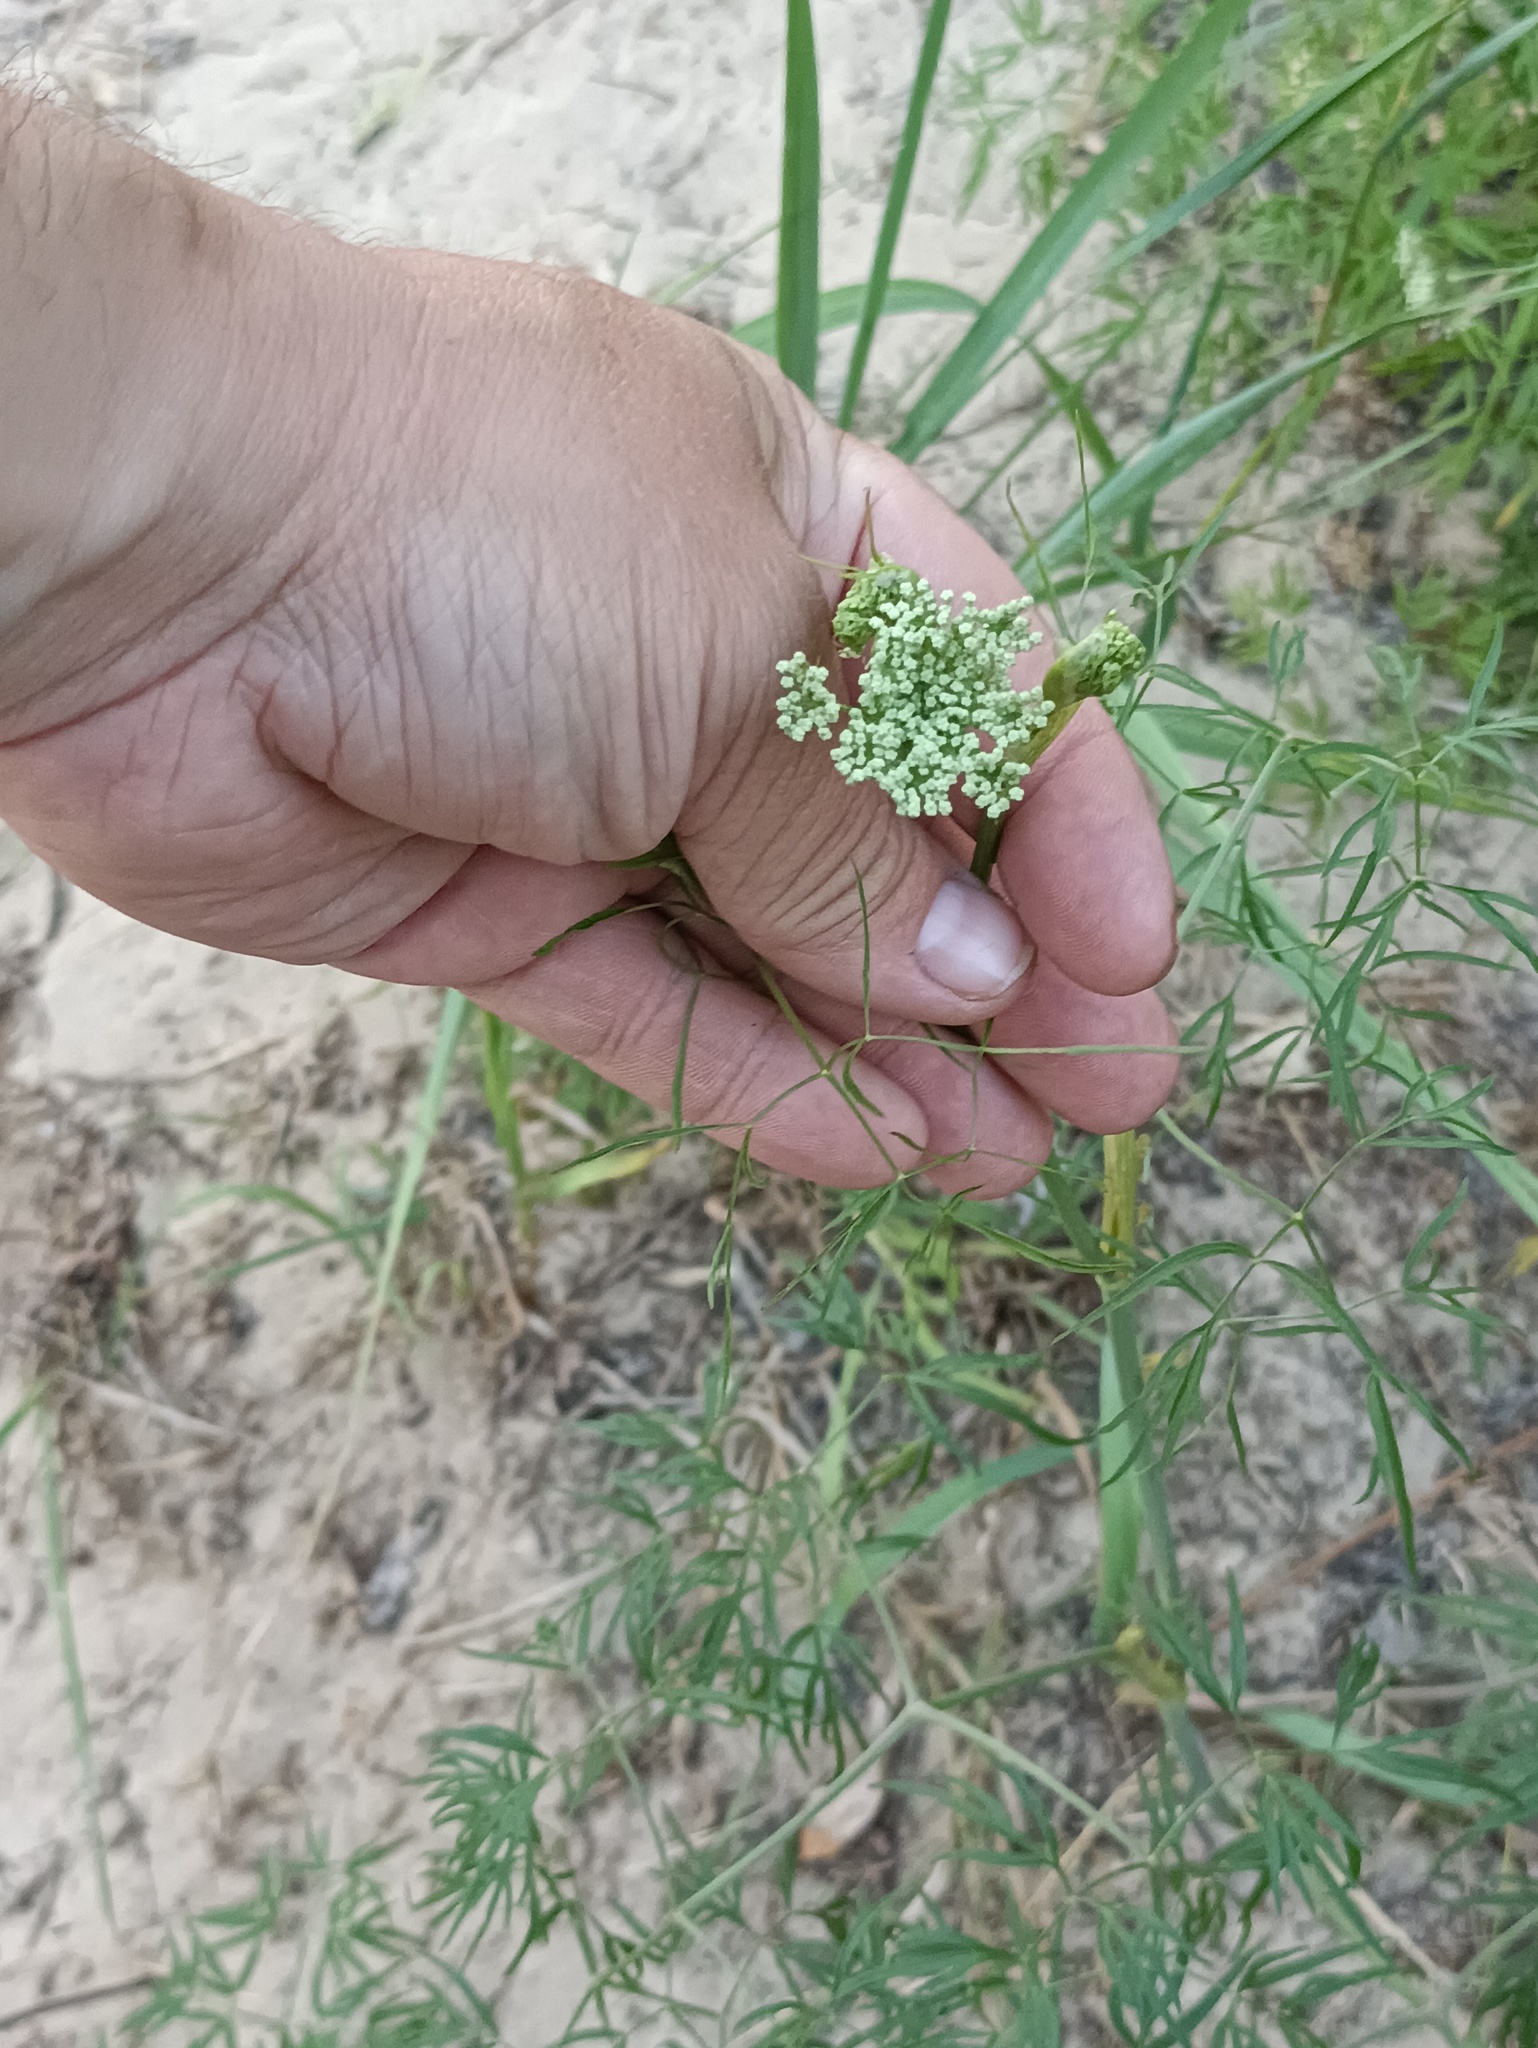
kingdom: Plantae
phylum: Tracheophyta
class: Magnoliopsida
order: Apiales
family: Apiaceae
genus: Cenolophium
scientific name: Cenolophium fischeri
